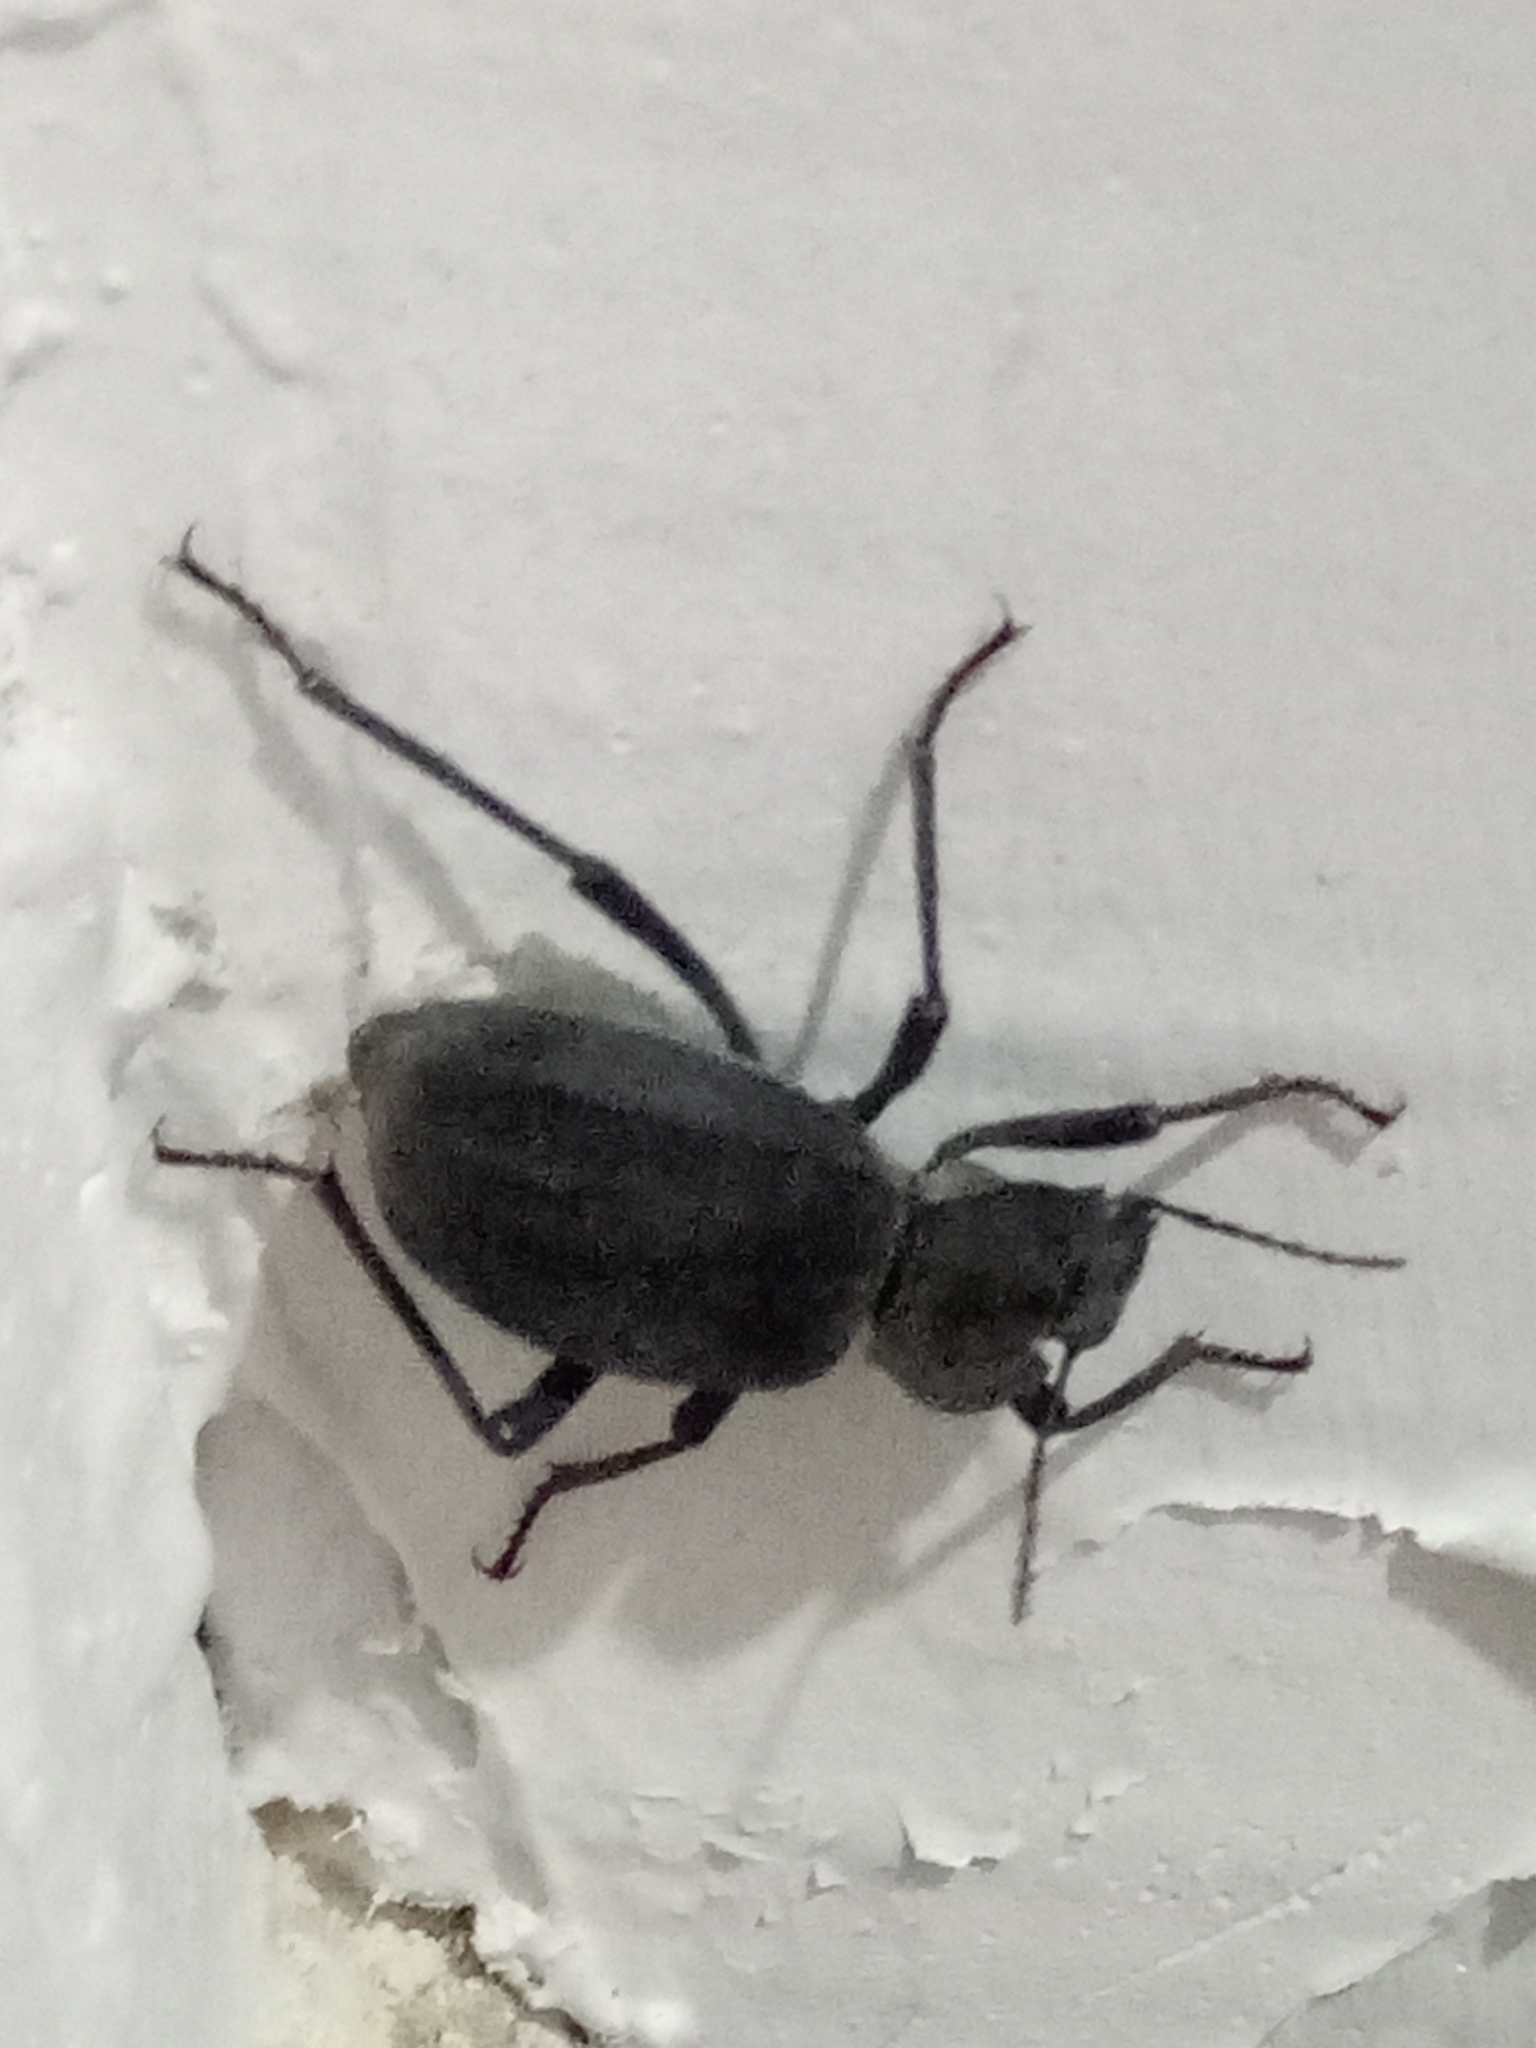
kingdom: Animalia
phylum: Arthropoda
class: Insecta
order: Coleoptera
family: Tenebrionidae
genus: Akis
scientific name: Akis trilineata
